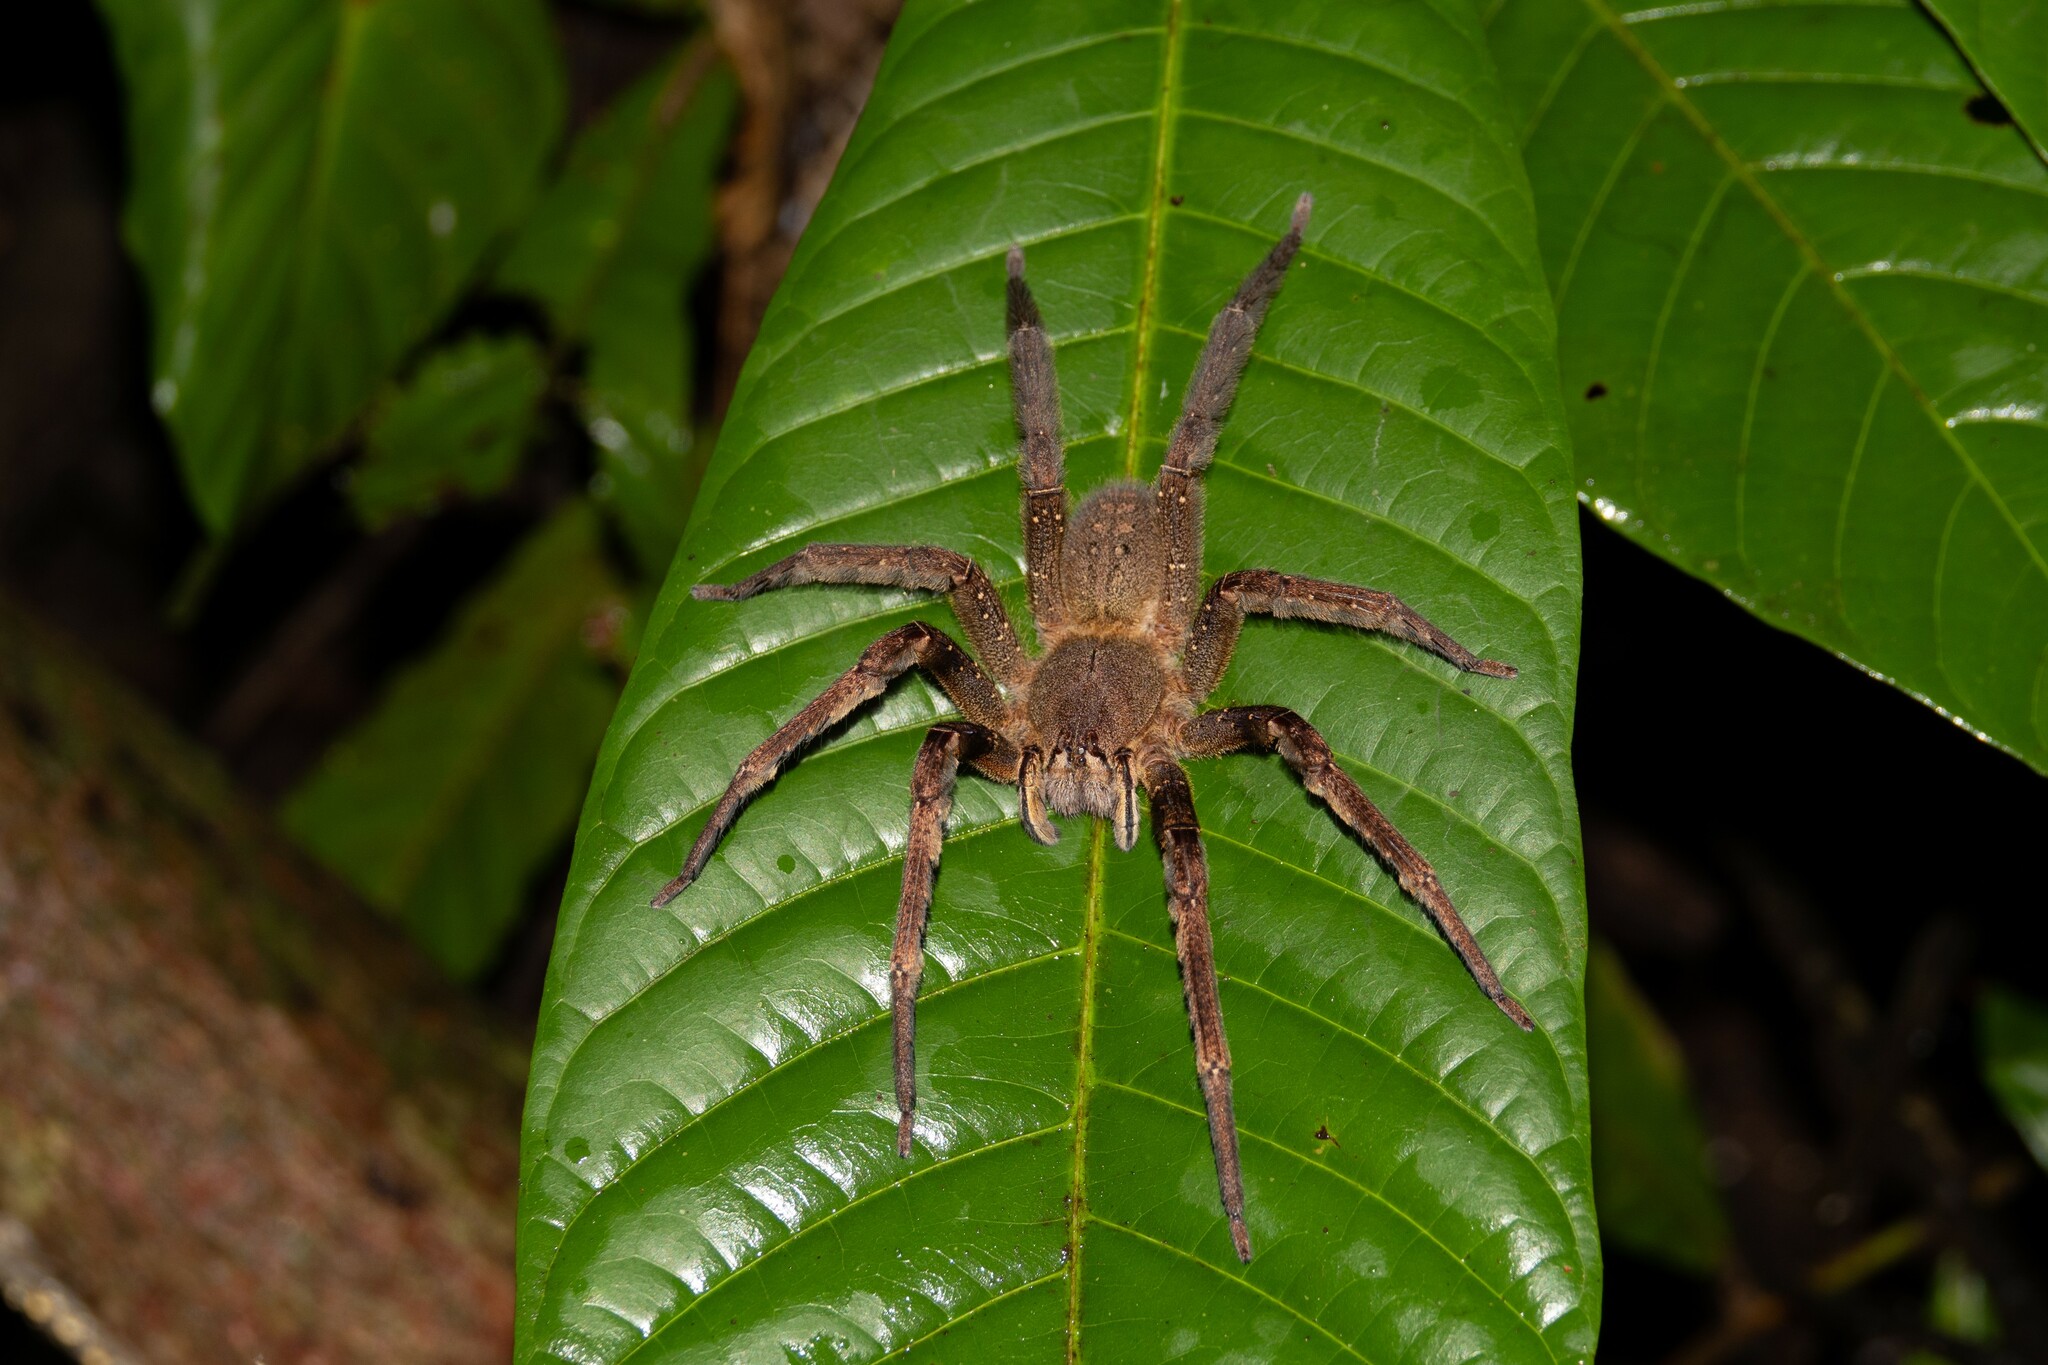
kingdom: Animalia
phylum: Arthropoda
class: Arachnida
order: Araneae
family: Ctenidae
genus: Phoneutria
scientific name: Phoneutria fera
